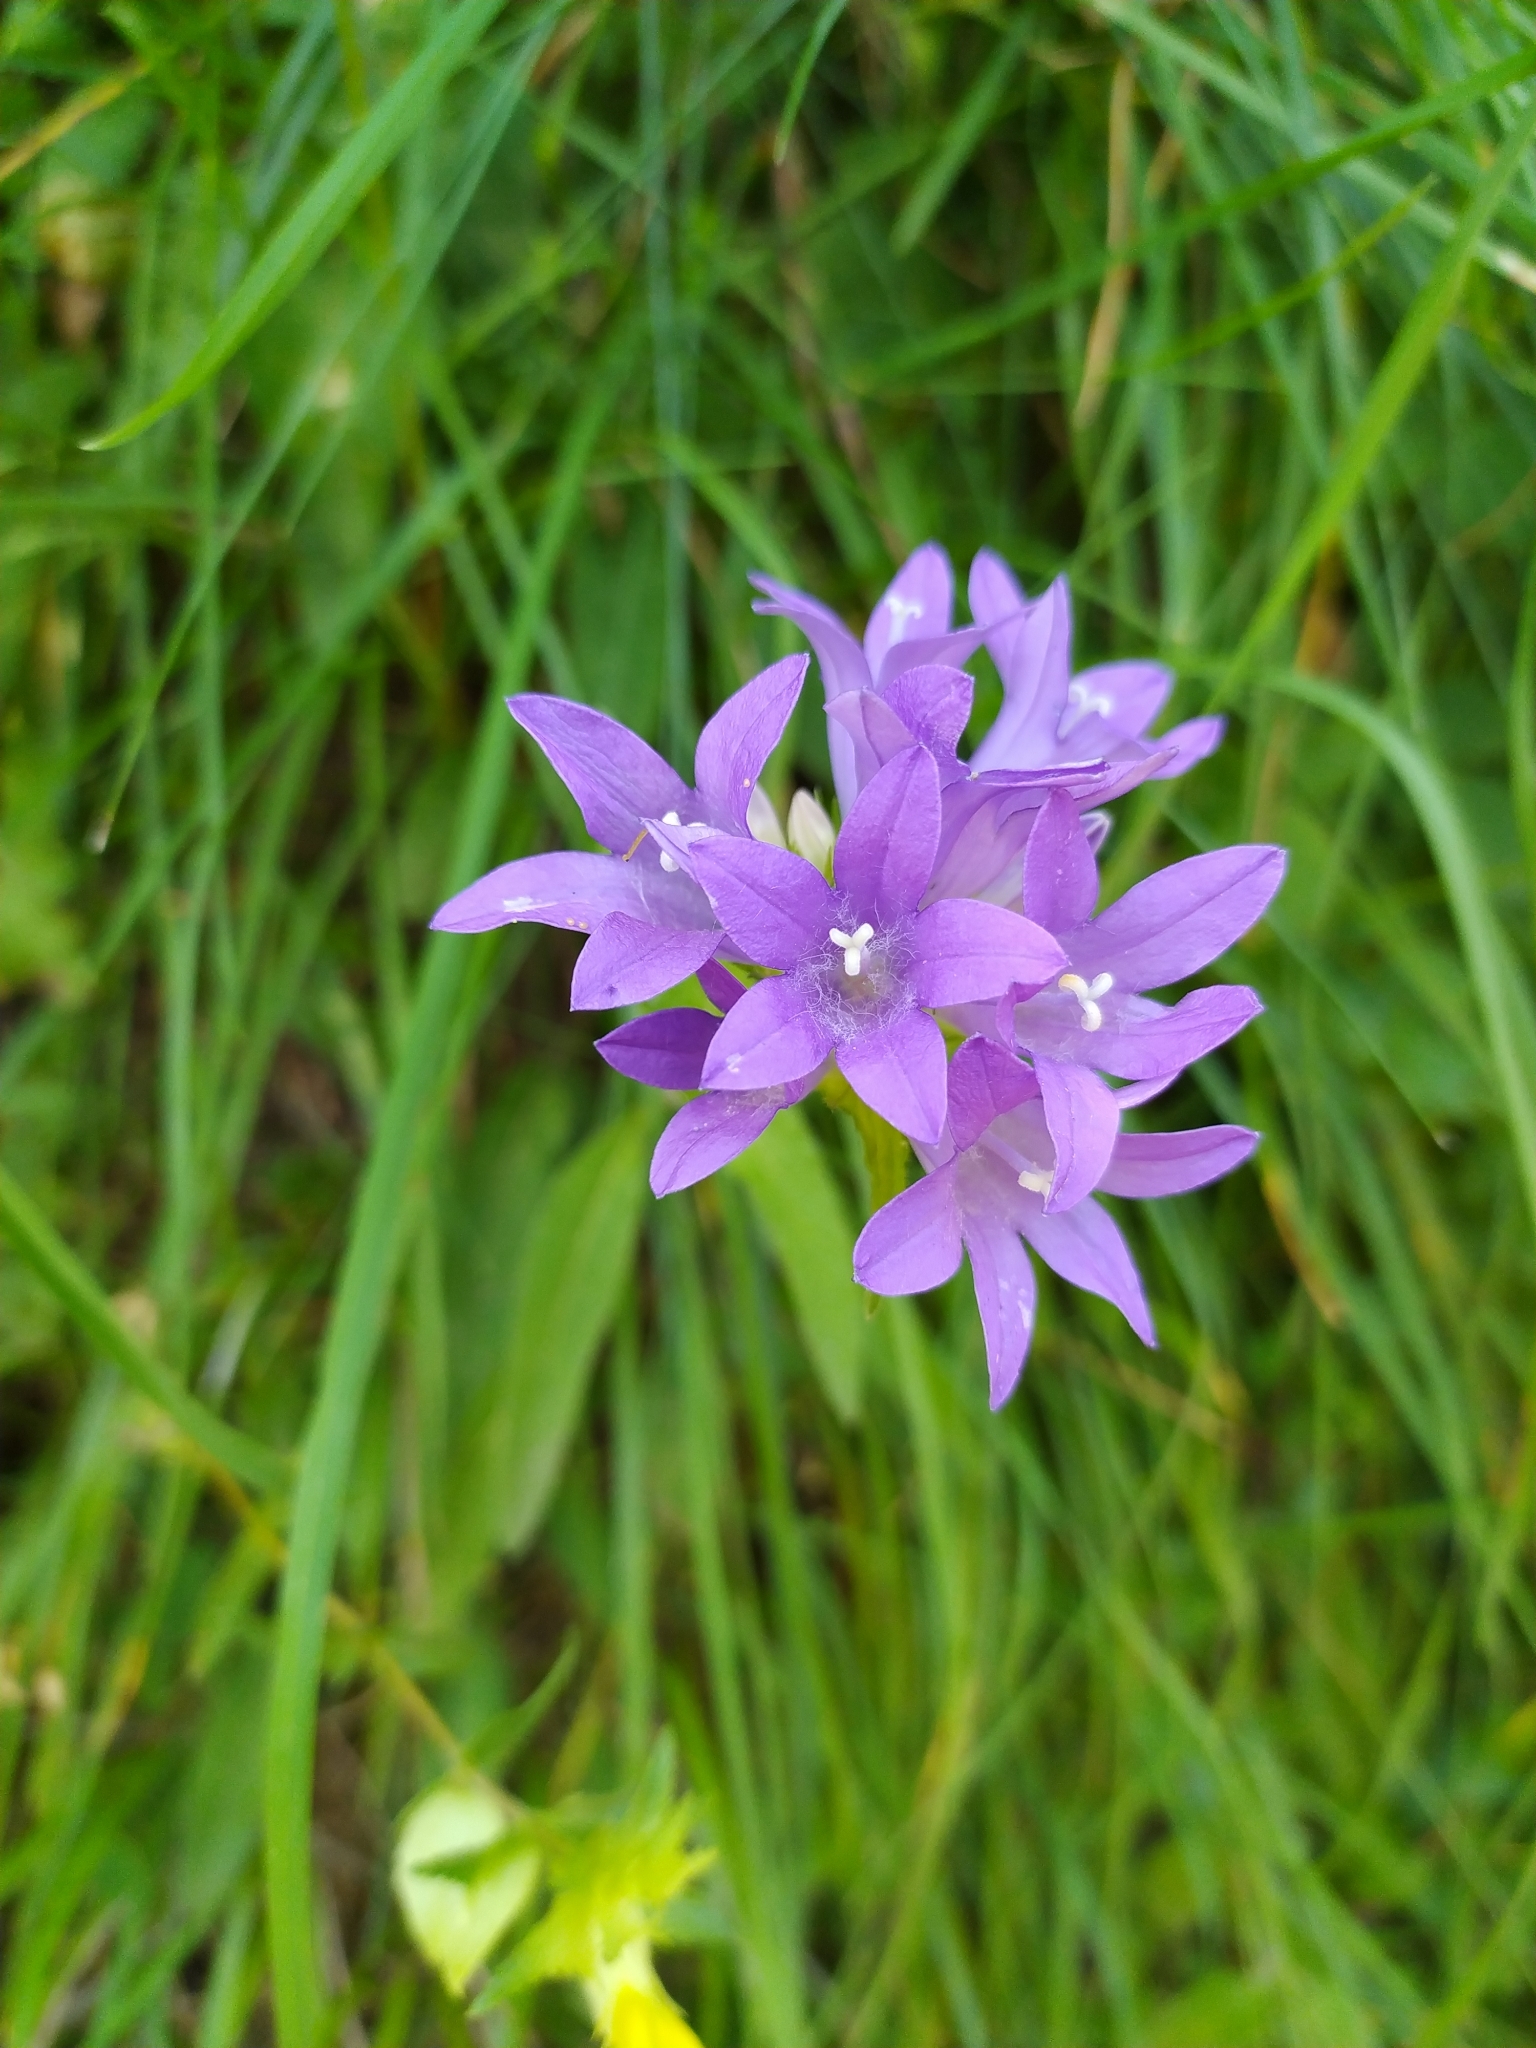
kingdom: Plantae
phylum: Tracheophyta
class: Magnoliopsida
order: Asterales
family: Campanulaceae
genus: Campanula
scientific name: Campanula glomerata
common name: Clustered bellflower
